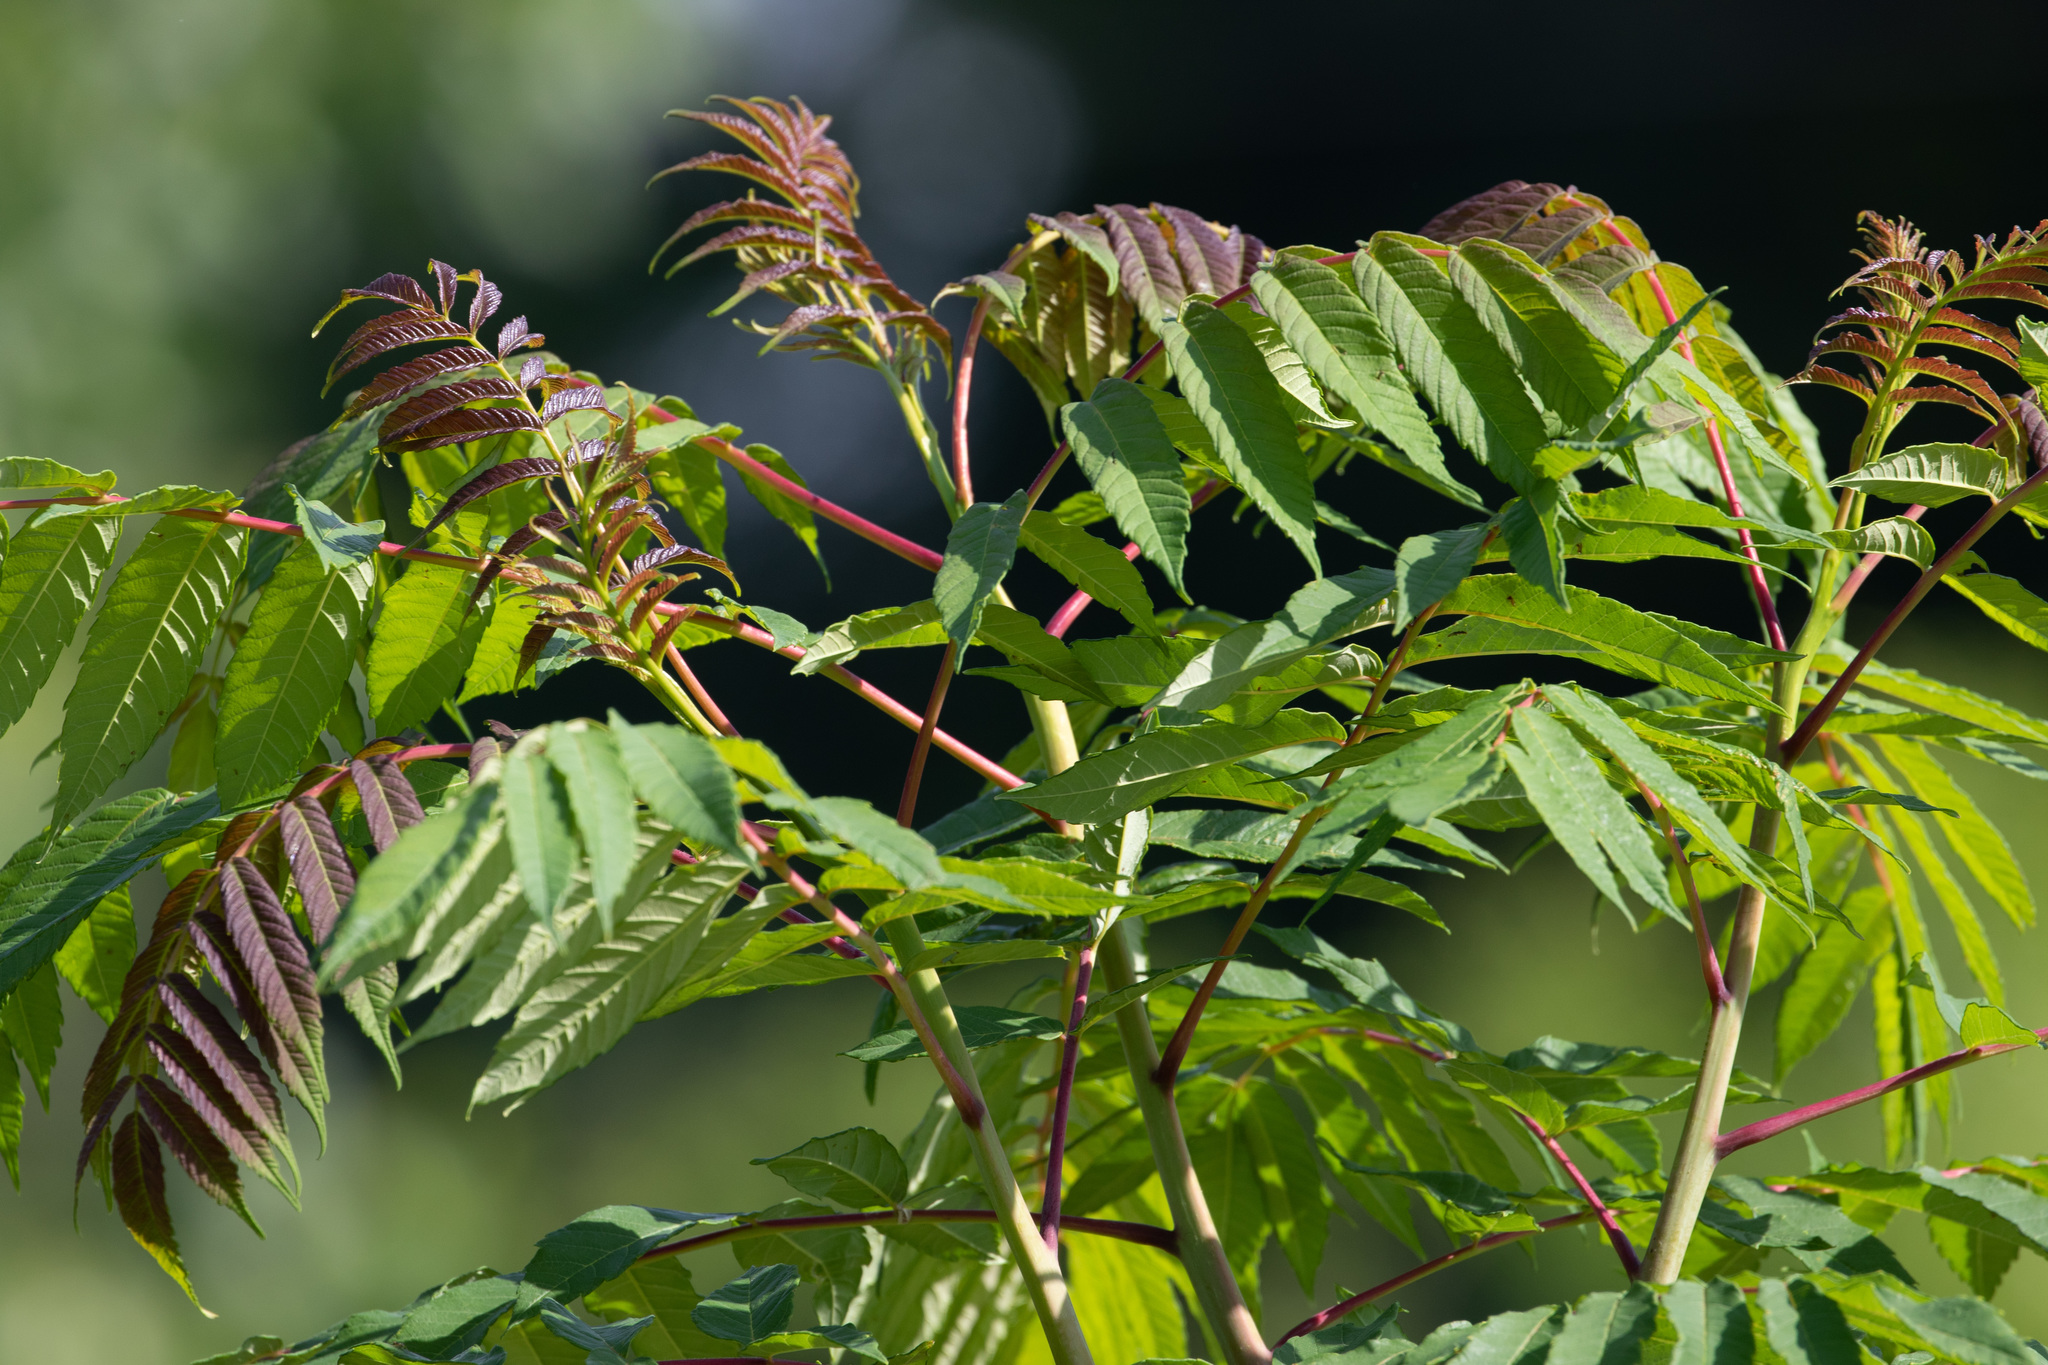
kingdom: Plantae
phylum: Tracheophyta
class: Magnoliopsida
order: Sapindales
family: Anacardiaceae
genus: Rhus
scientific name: Rhus glabra
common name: Scarlet sumac
